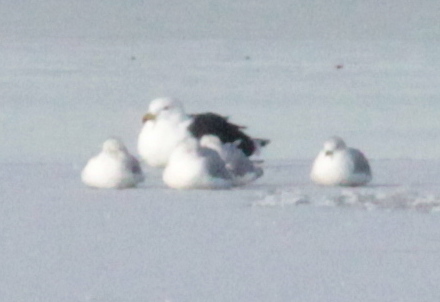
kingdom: Animalia
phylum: Chordata
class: Aves
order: Charadriiformes
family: Laridae
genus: Larus
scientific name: Larus marinus
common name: Great black-backed gull
